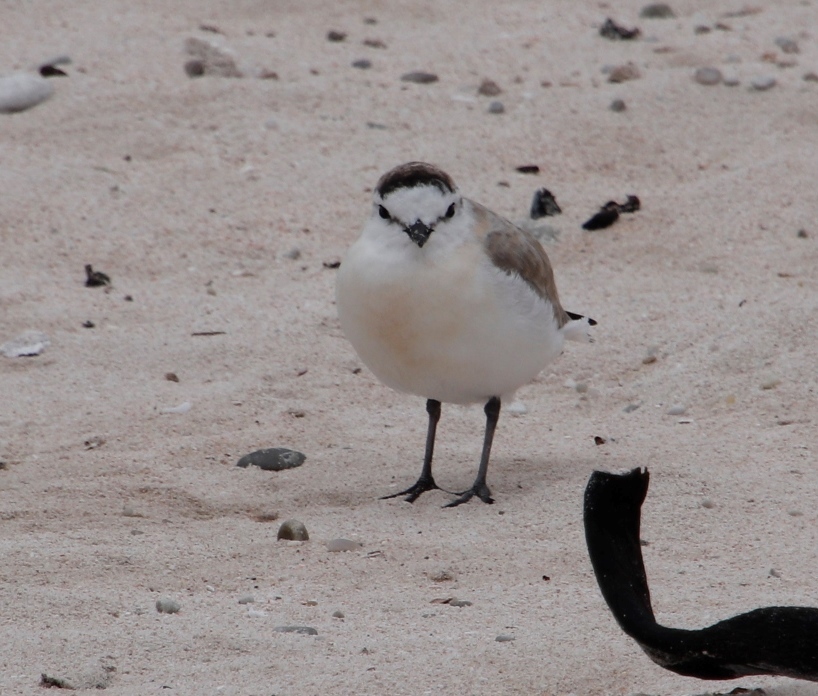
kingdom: Animalia
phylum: Chordata
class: Aves
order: Charadriiformes
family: Charadriidae
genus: Anarhynchus
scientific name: Anarhynchus
